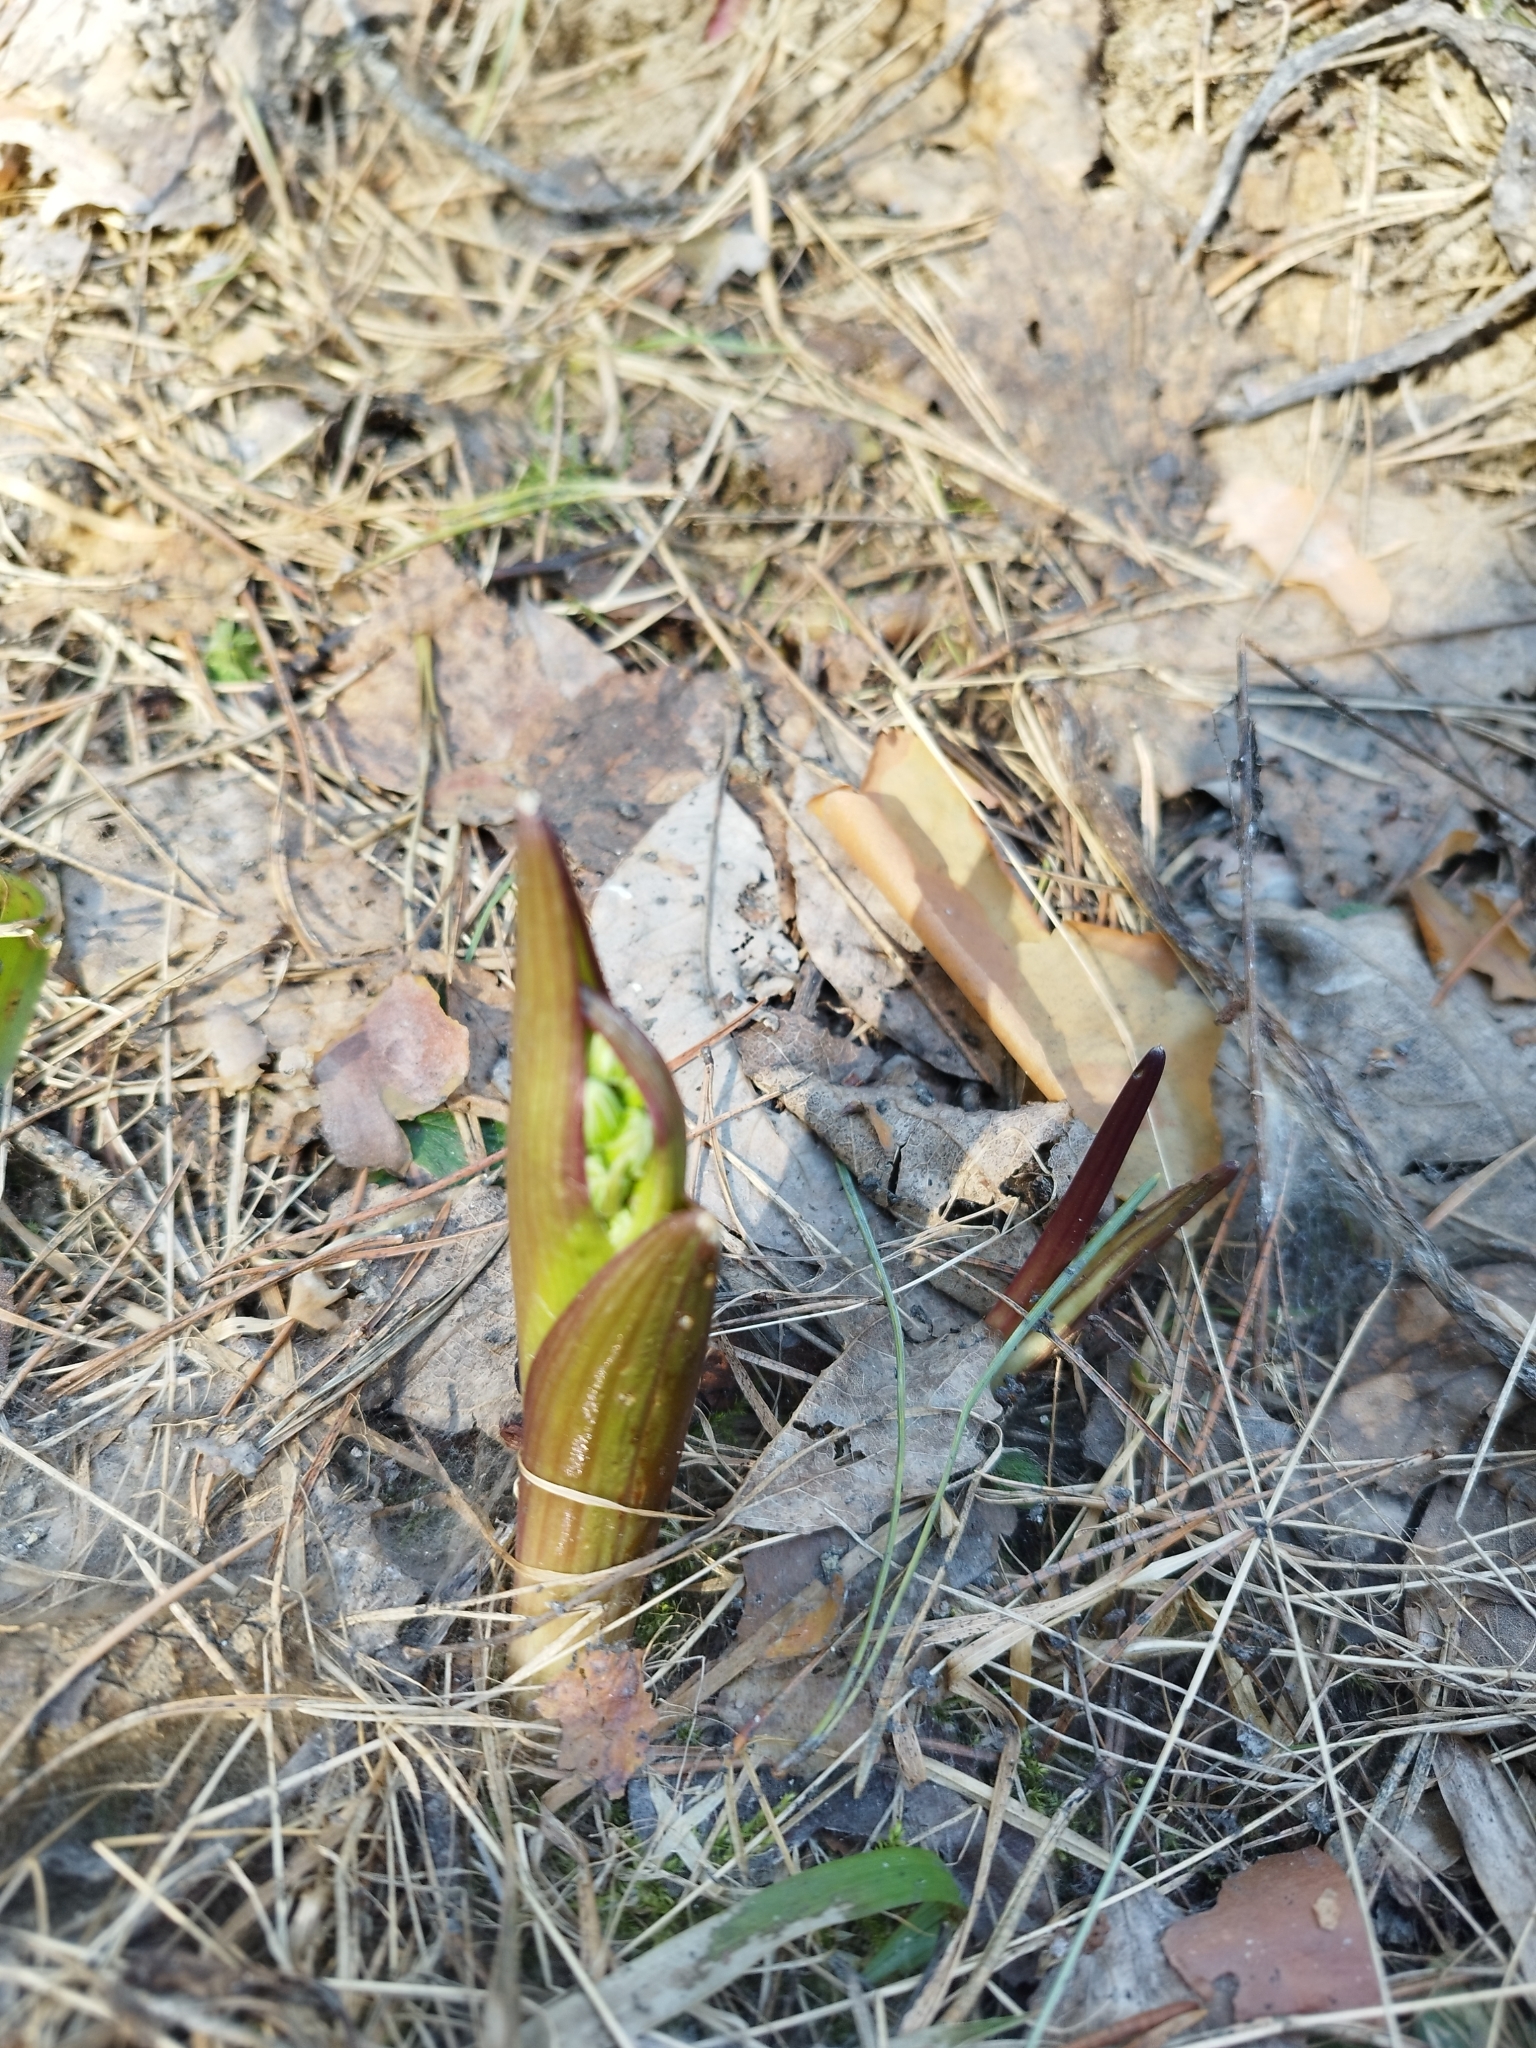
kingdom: Plantae
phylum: Tracheophyta
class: Magnoliopsida
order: Asterales
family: Asteraceae
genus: Petasites
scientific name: Petasites spurius
